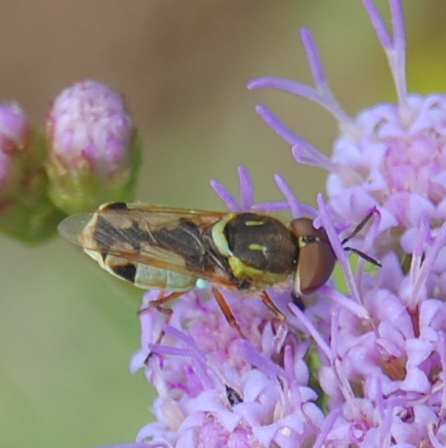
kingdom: Animalia
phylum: Arthropoda
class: Insecta
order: Diptera
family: Stratiomyidae
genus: Hedriodiscus
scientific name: Hedriodiscus pulcher
